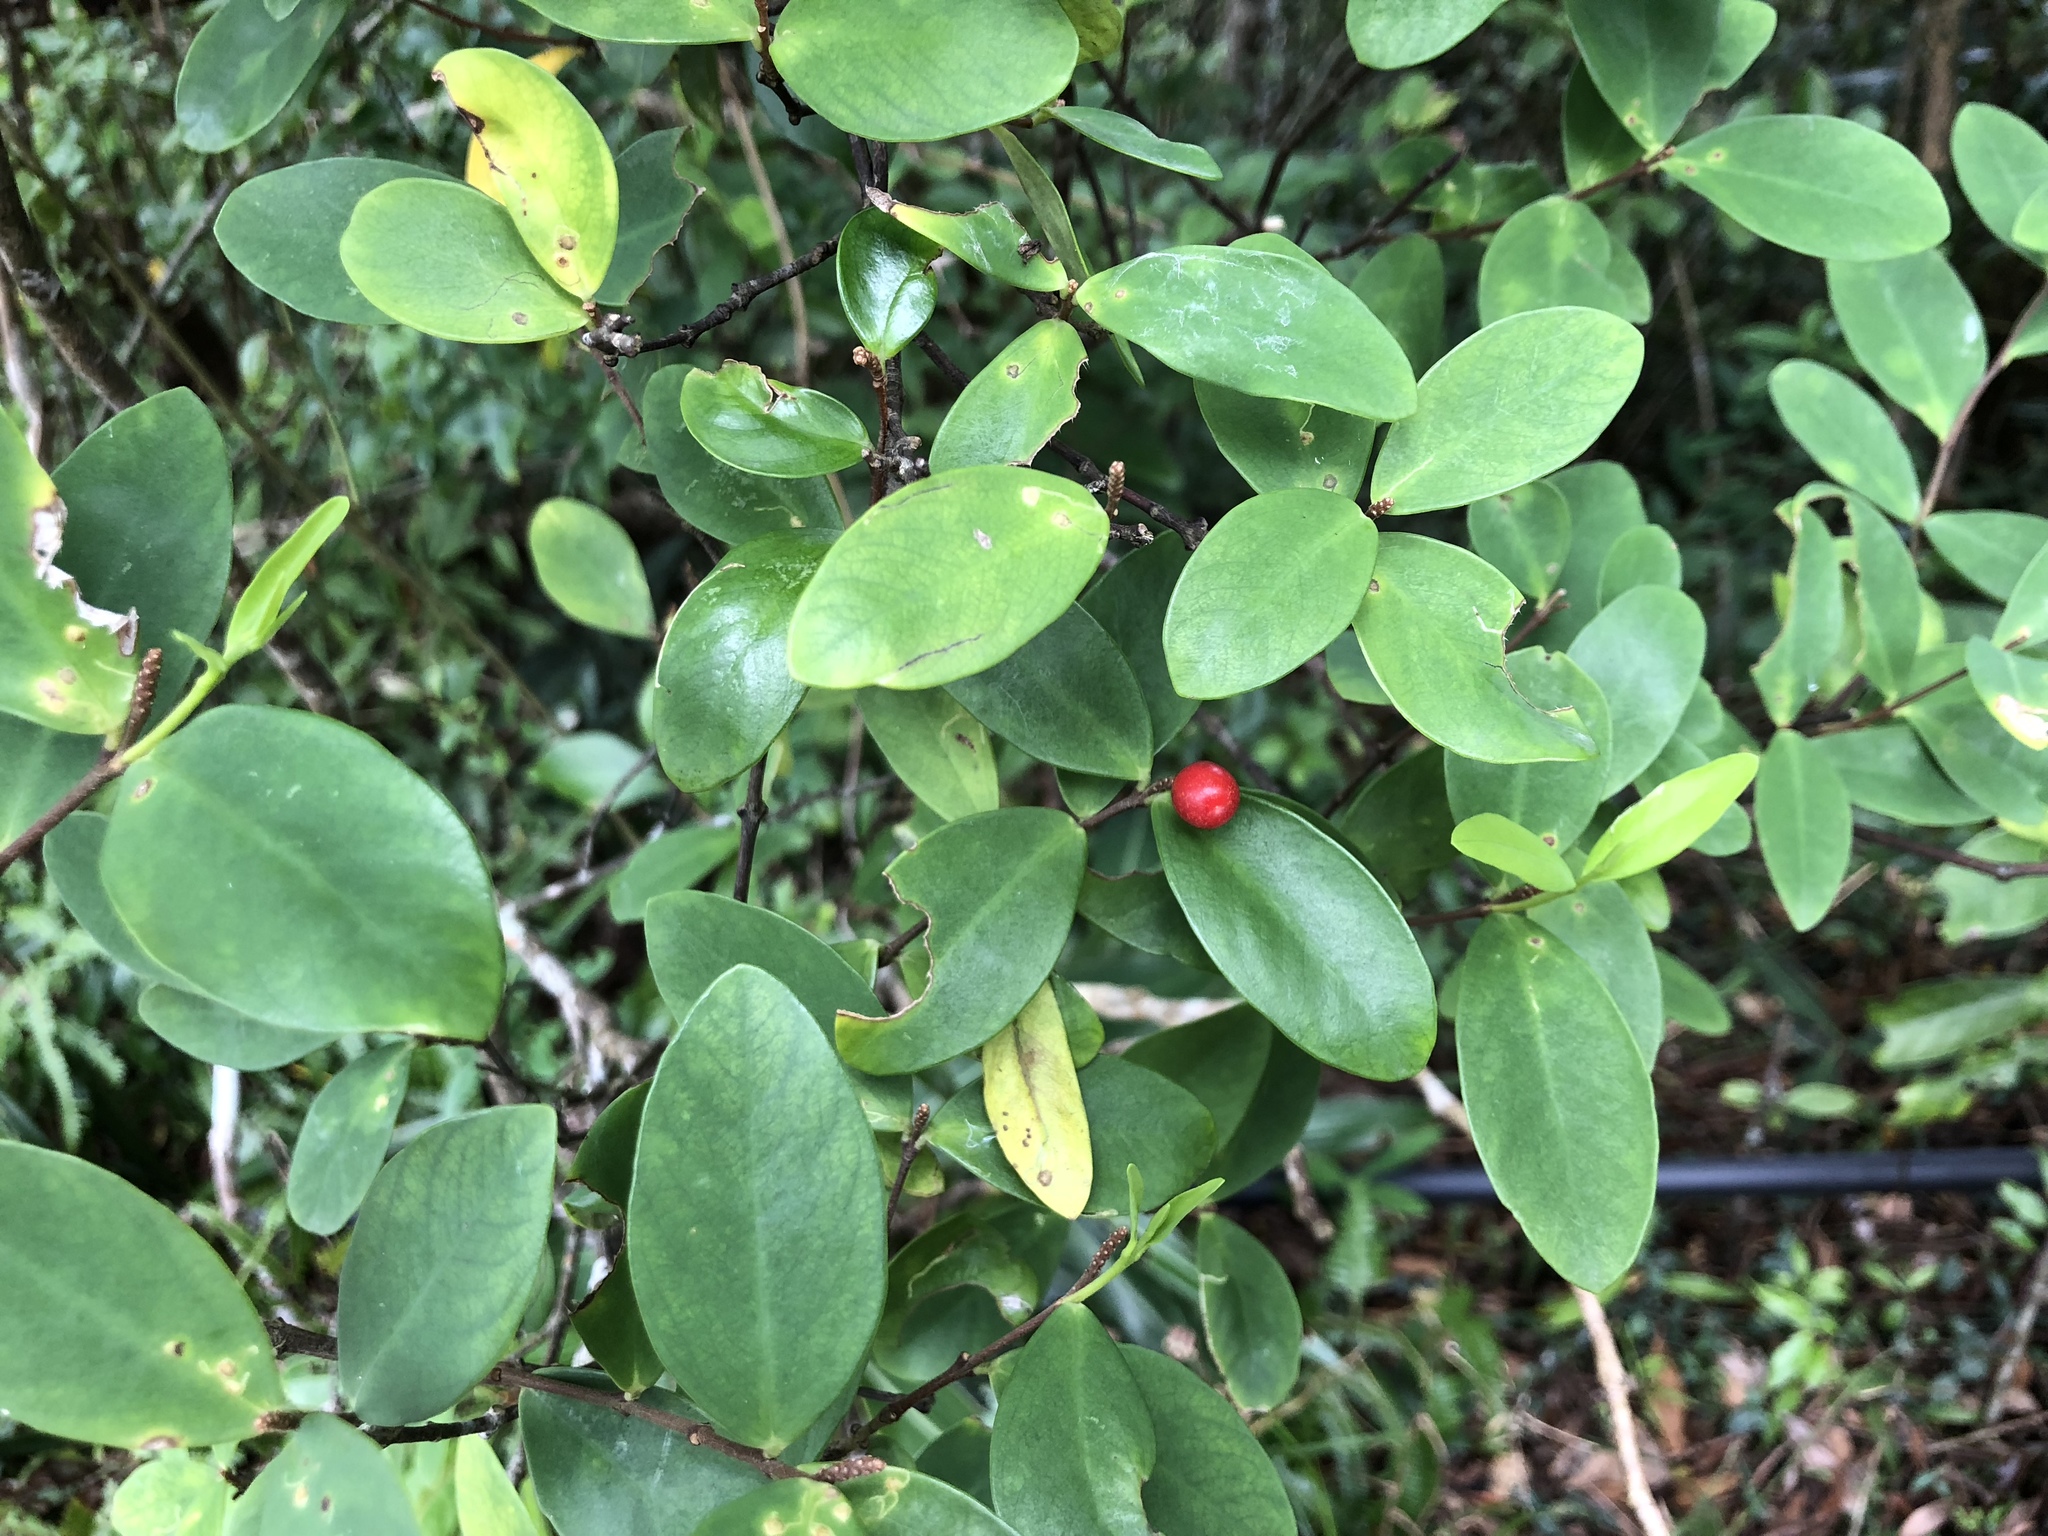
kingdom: Plantae
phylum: Tracheophyta
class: Magnoliopsida
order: Malvales
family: Thymelaeaceae
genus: Wikstroemia
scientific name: Wikstroemia taiwanensis
